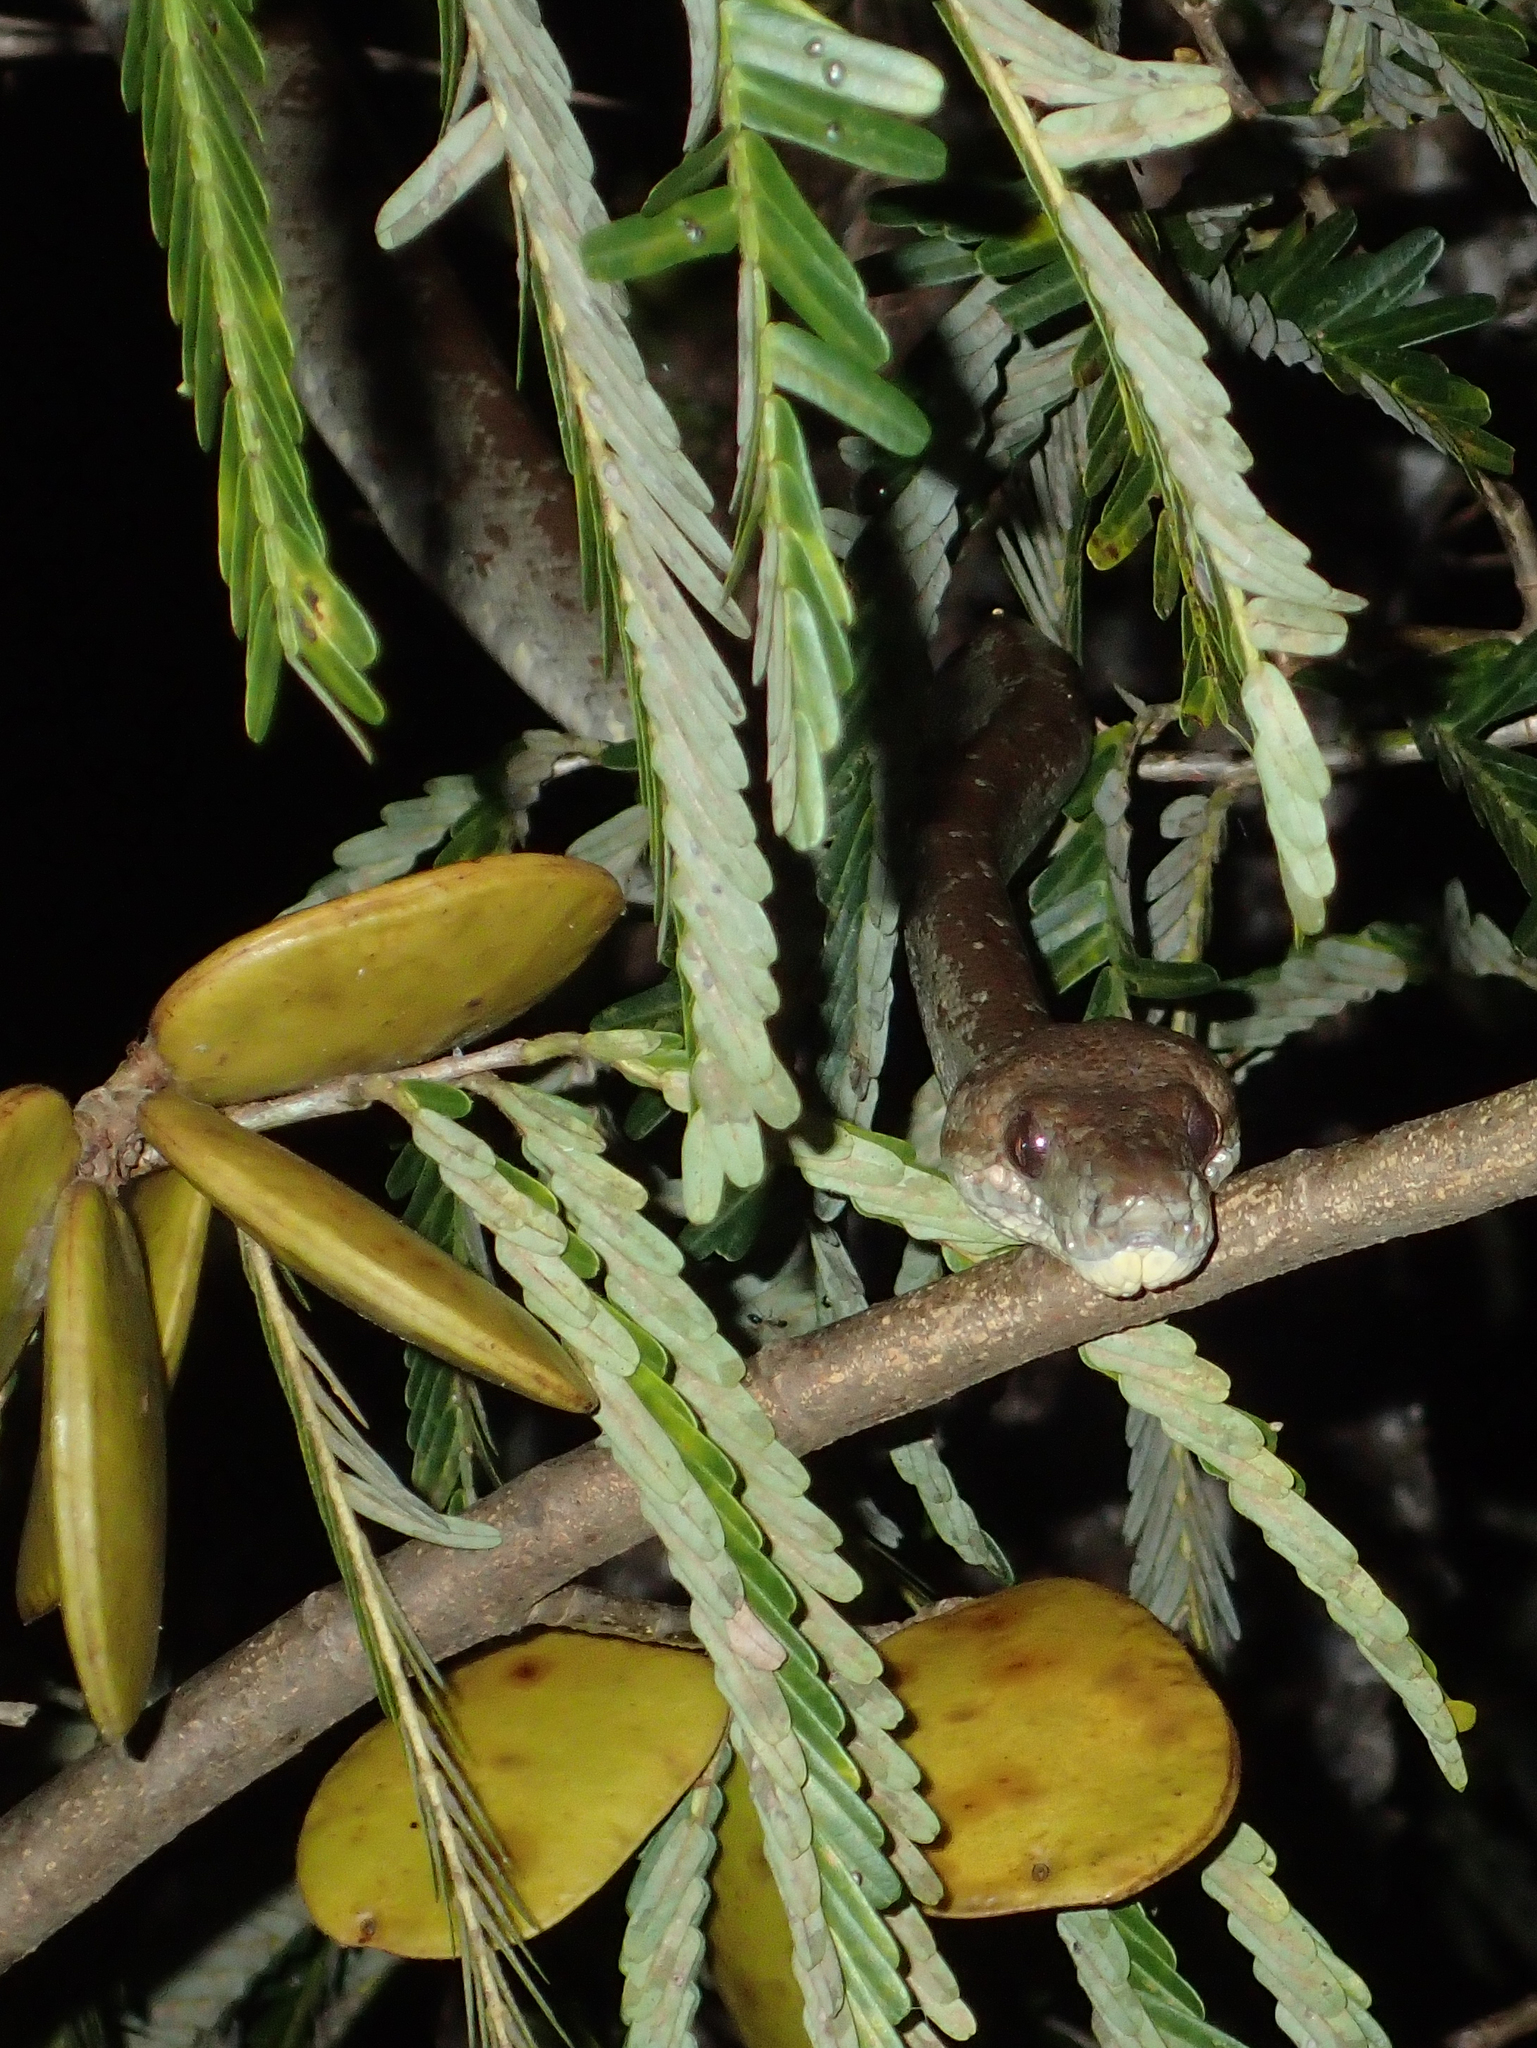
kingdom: Animalia
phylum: Chordata
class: Squamata
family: Boidae
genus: Corallus
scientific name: Corallus hortulana
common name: Garden tree boa
